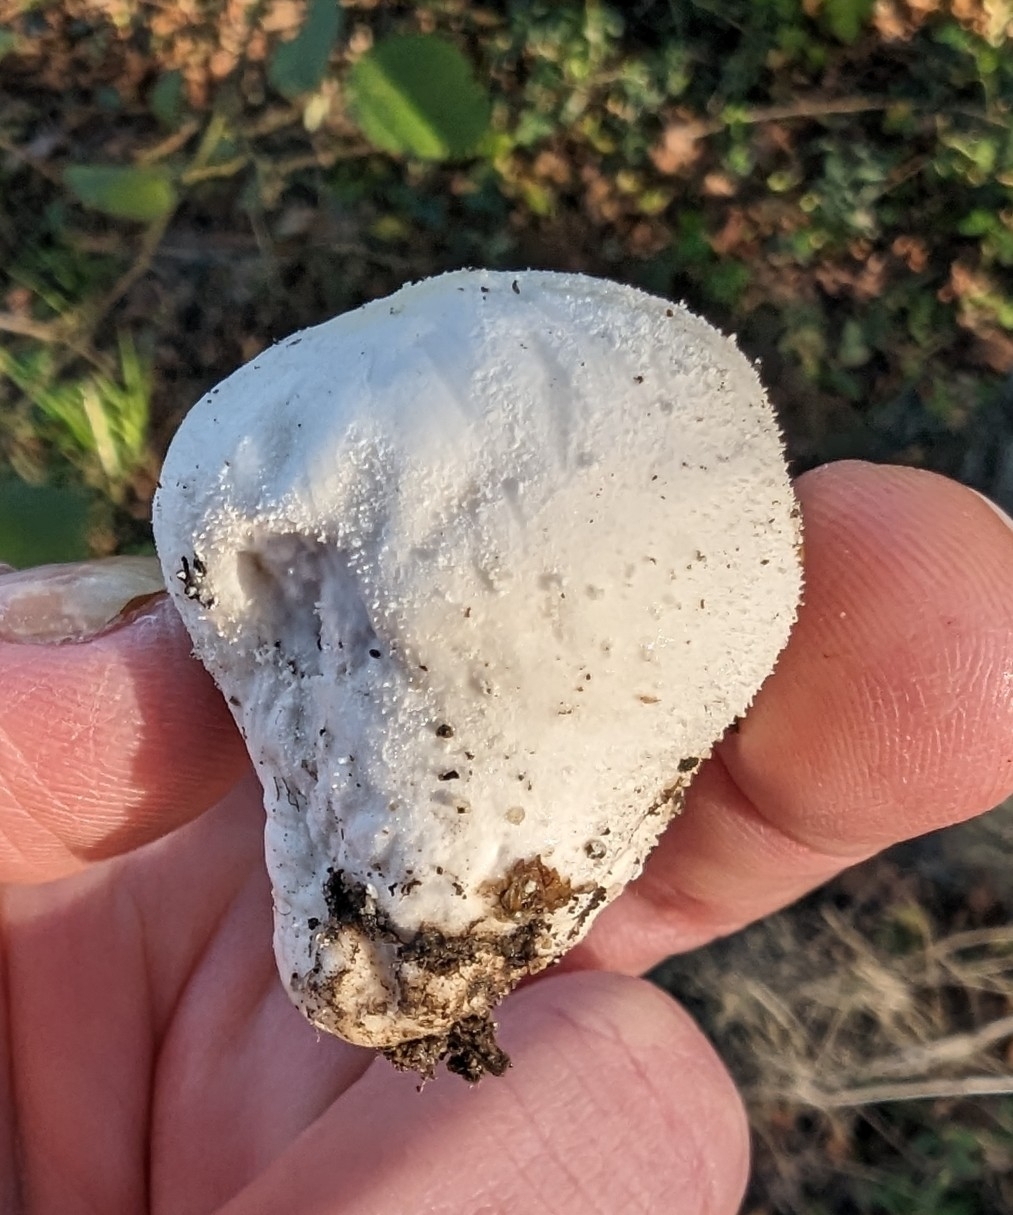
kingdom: Fungi
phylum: Basidiomycota
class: Agaricomycetes
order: Agaricales
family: Lycoperdaceae
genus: Lycoperdon
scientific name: Lycoperdon pratense
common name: Meadow puffball
